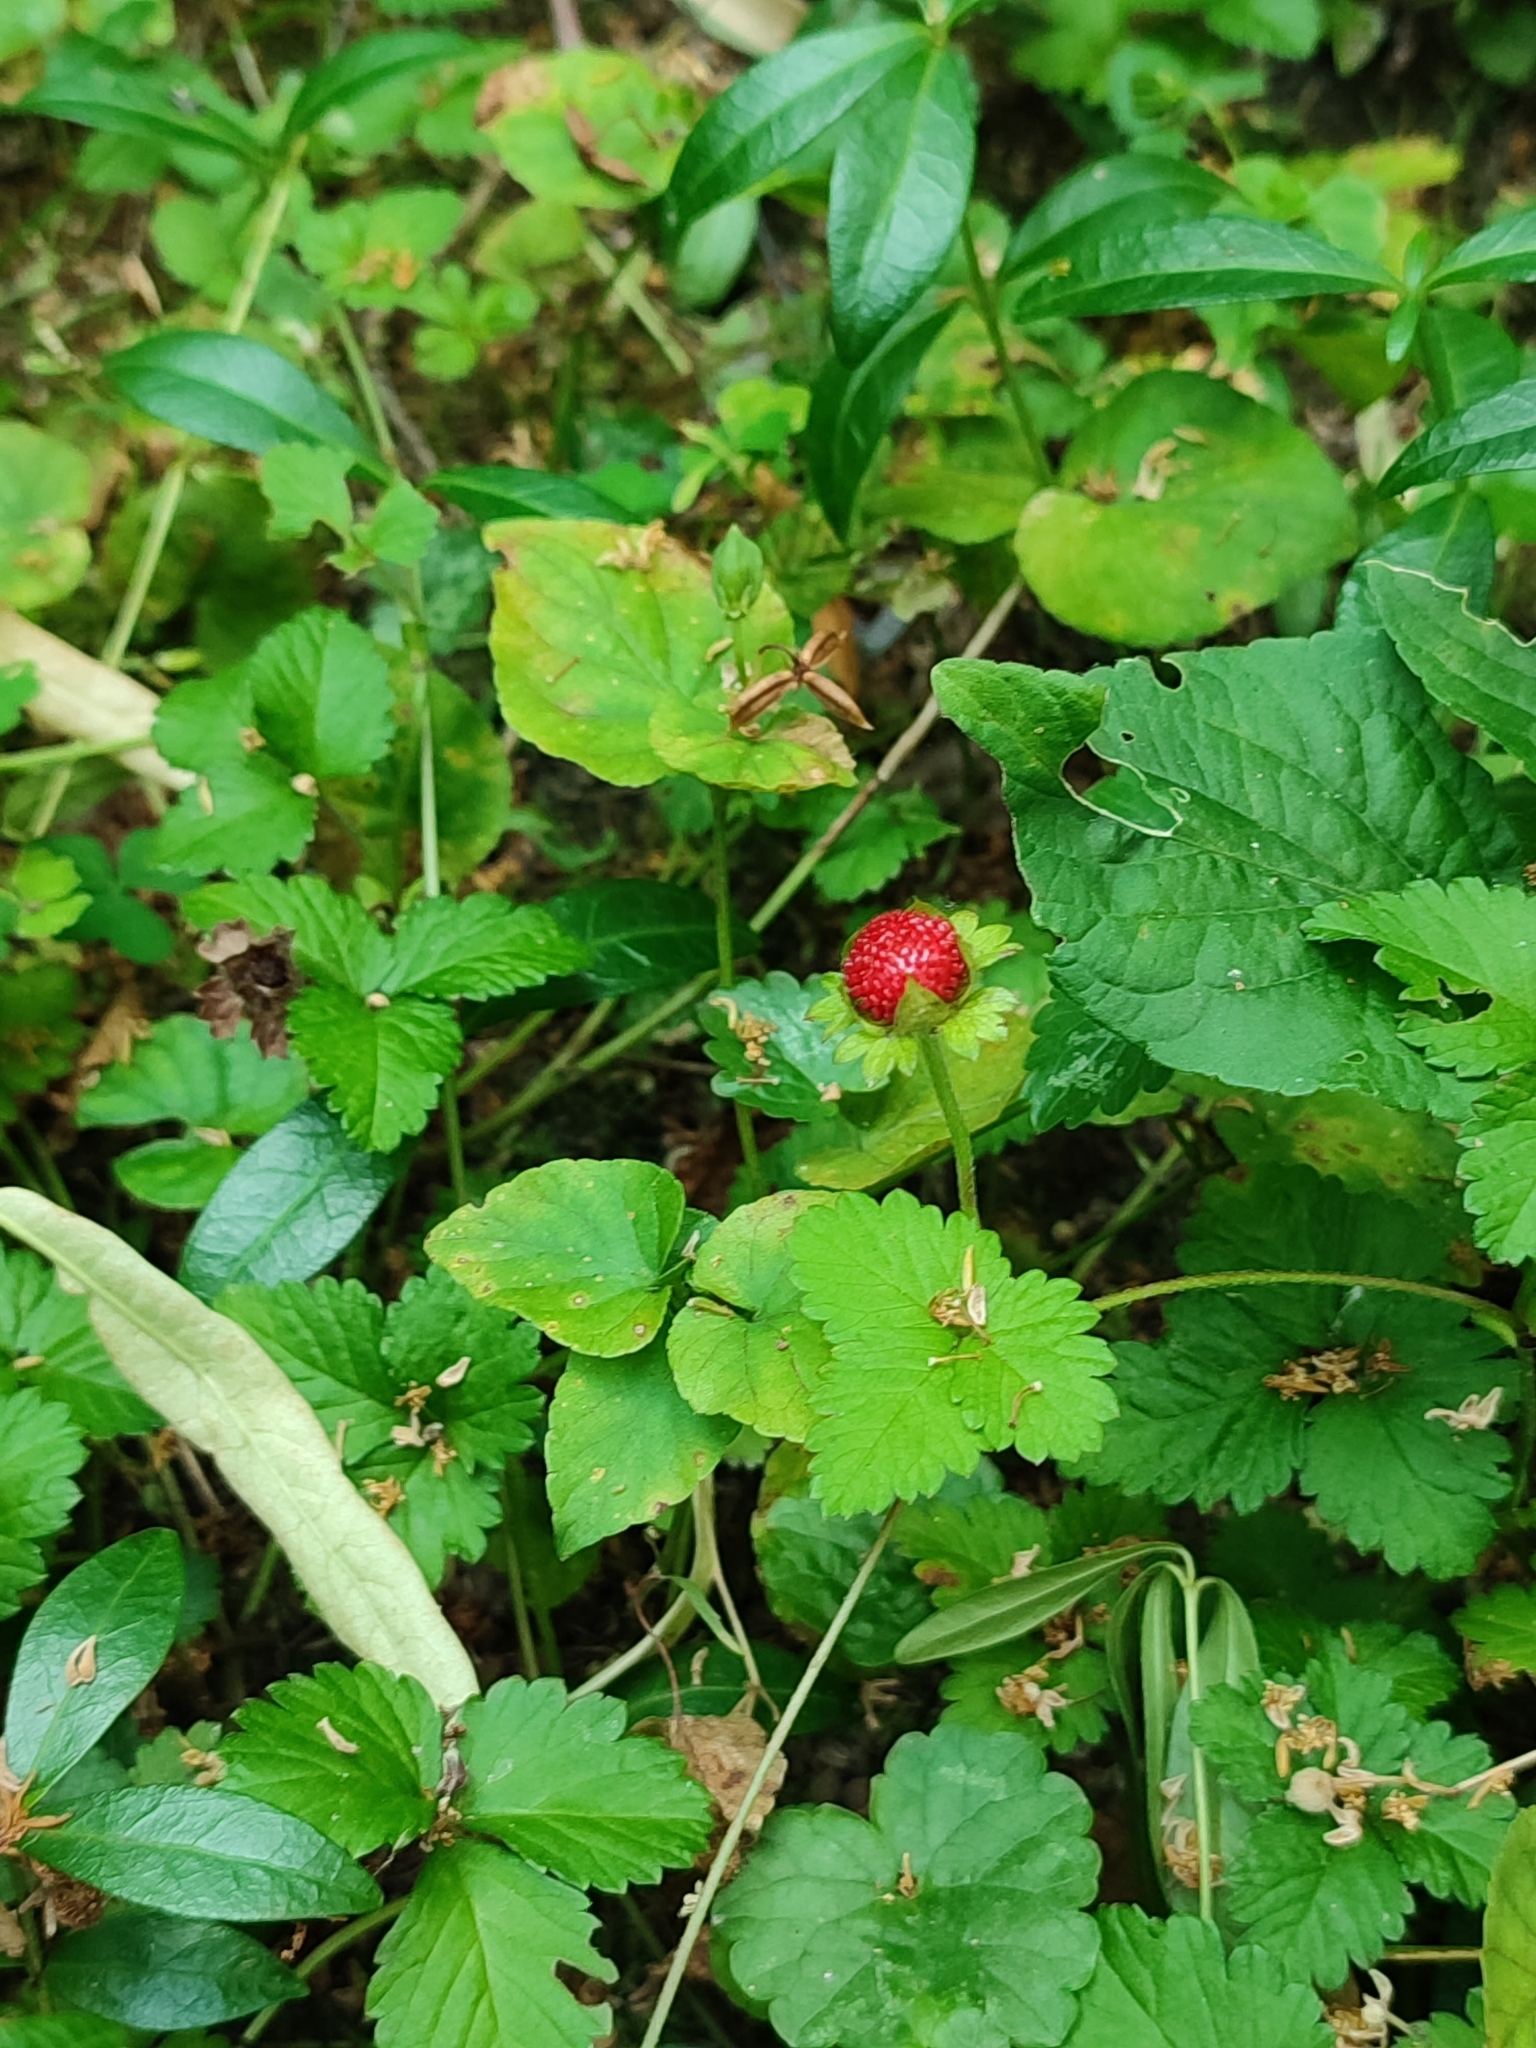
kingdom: Plantae
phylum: Tracheophyta
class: Magnoliopsida
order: Rosales
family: Rosaceae
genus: Potentilla
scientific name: Potentilla indica
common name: Yellow-flowered strawberry
